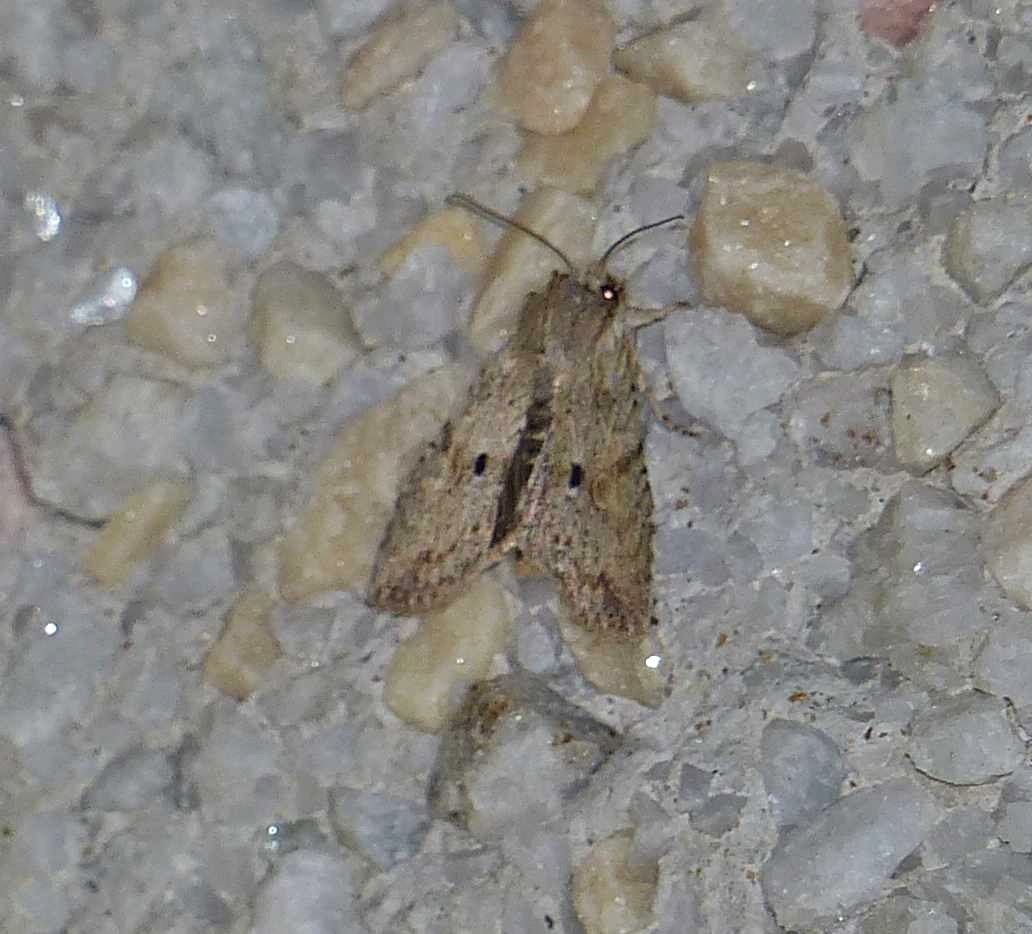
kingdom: Animalia
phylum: Arthropoda
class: Insecta
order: Lepidoptera
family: Noctuidae
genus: Lithophane
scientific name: Lithophane patefacta
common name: Dimorphic pinion moth
